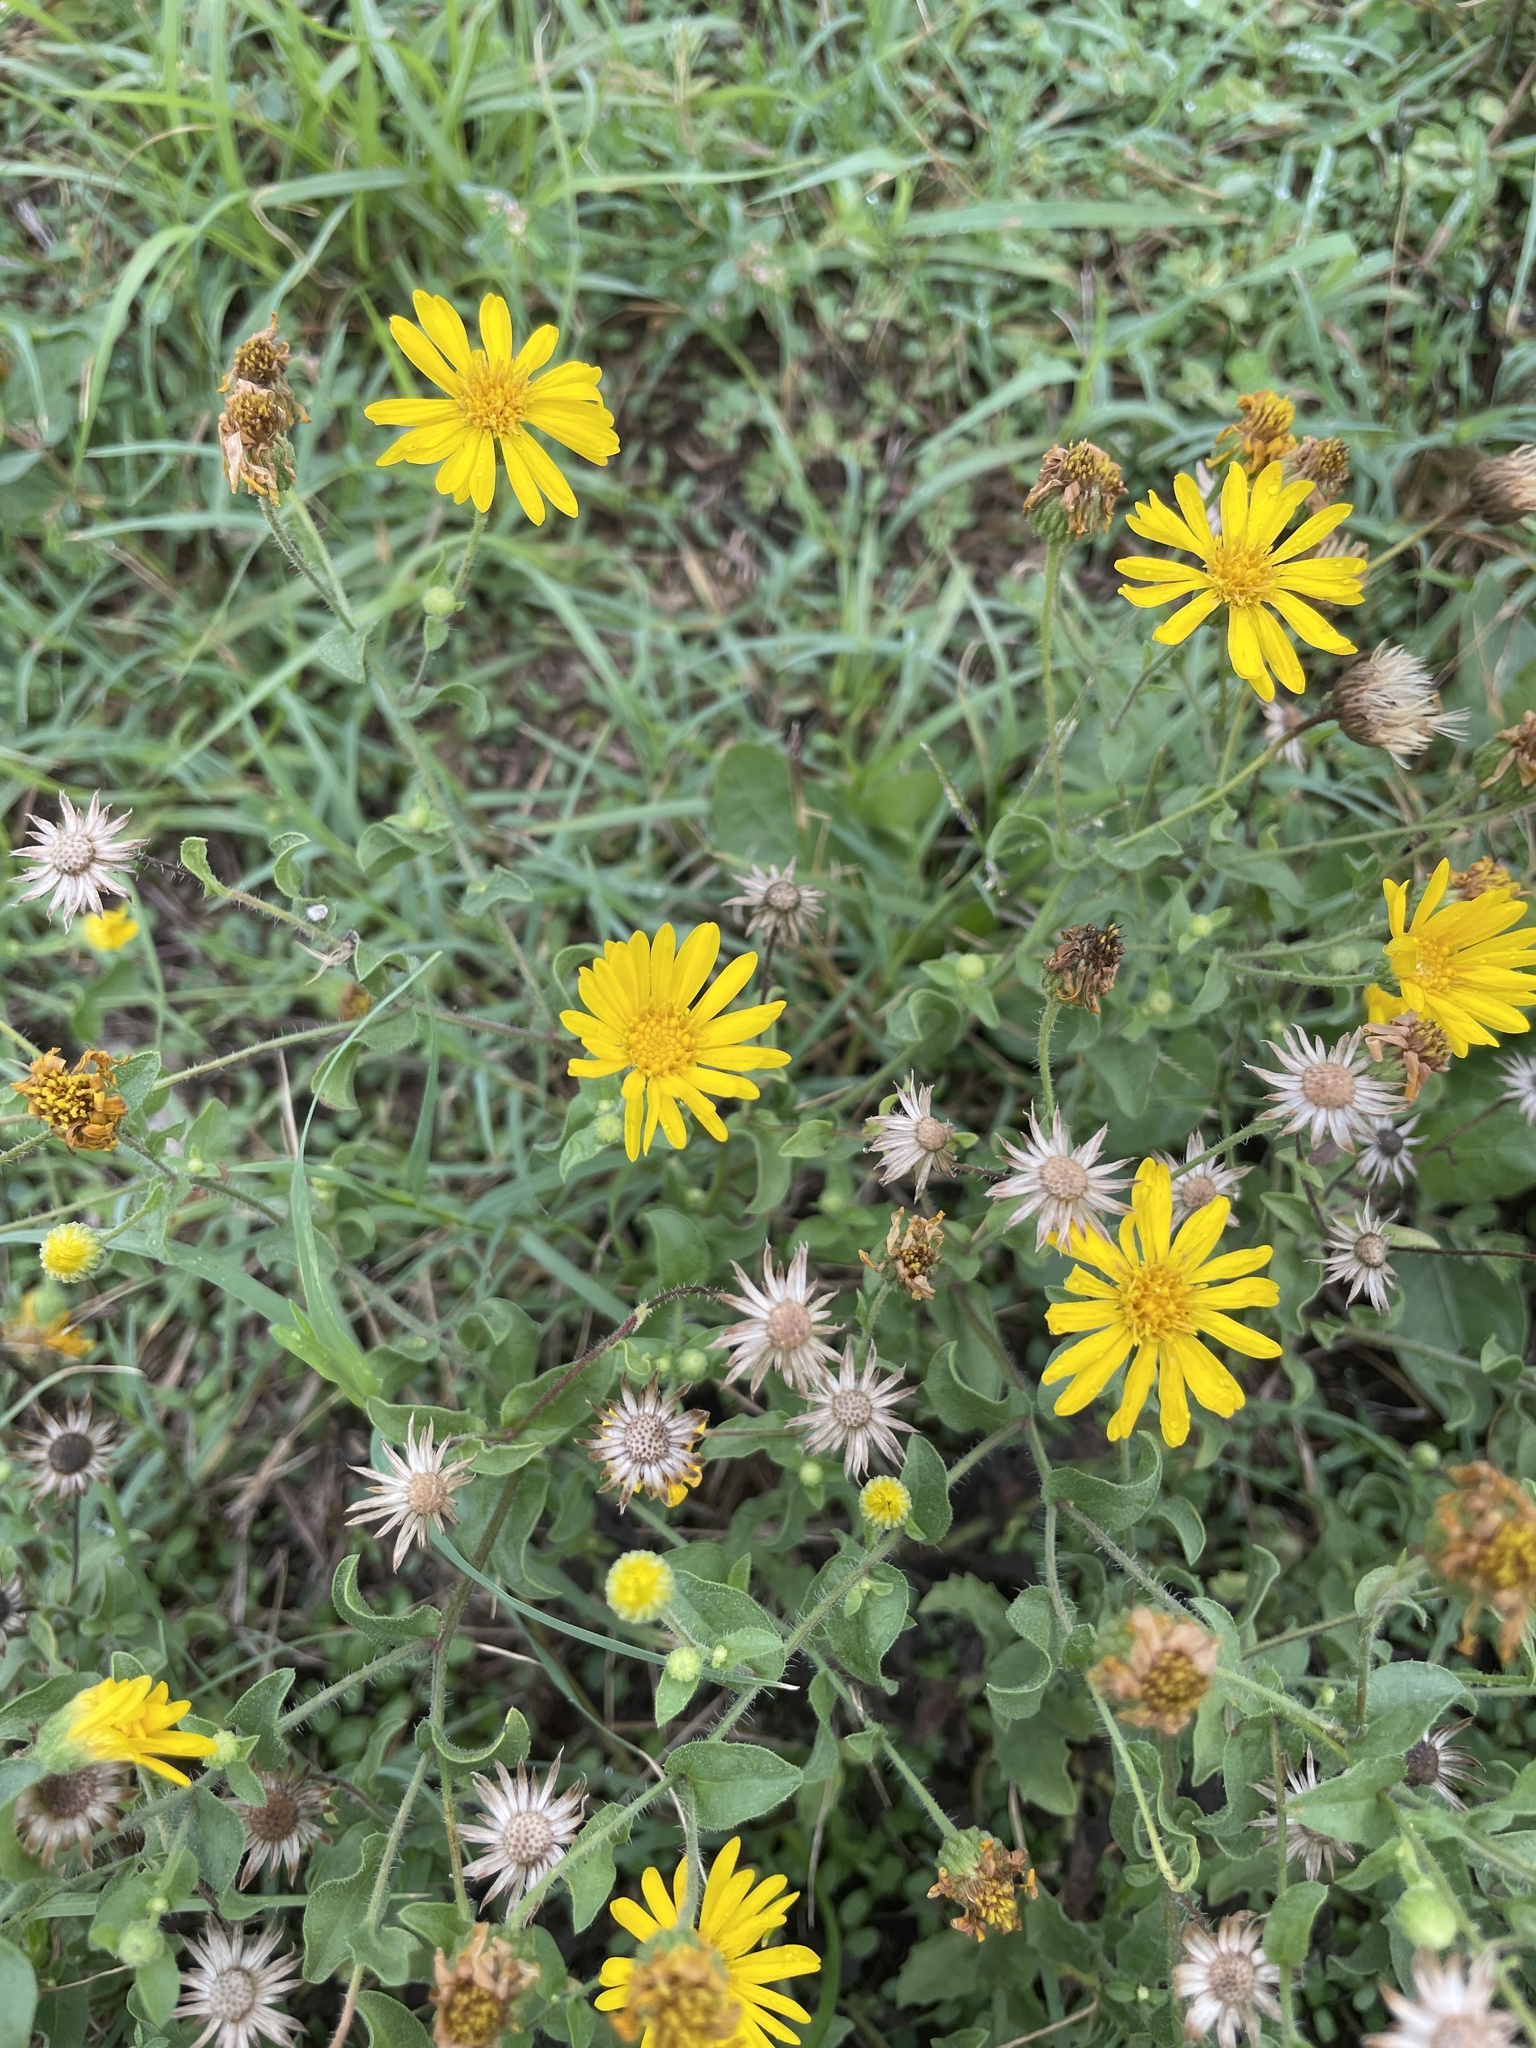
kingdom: Plantae
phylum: Tracheophyta
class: Magnoliopsida
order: Asterales
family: Asteraceae
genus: Heterotheca
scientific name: Heterotheca subaxillaris
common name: Camphorweed
